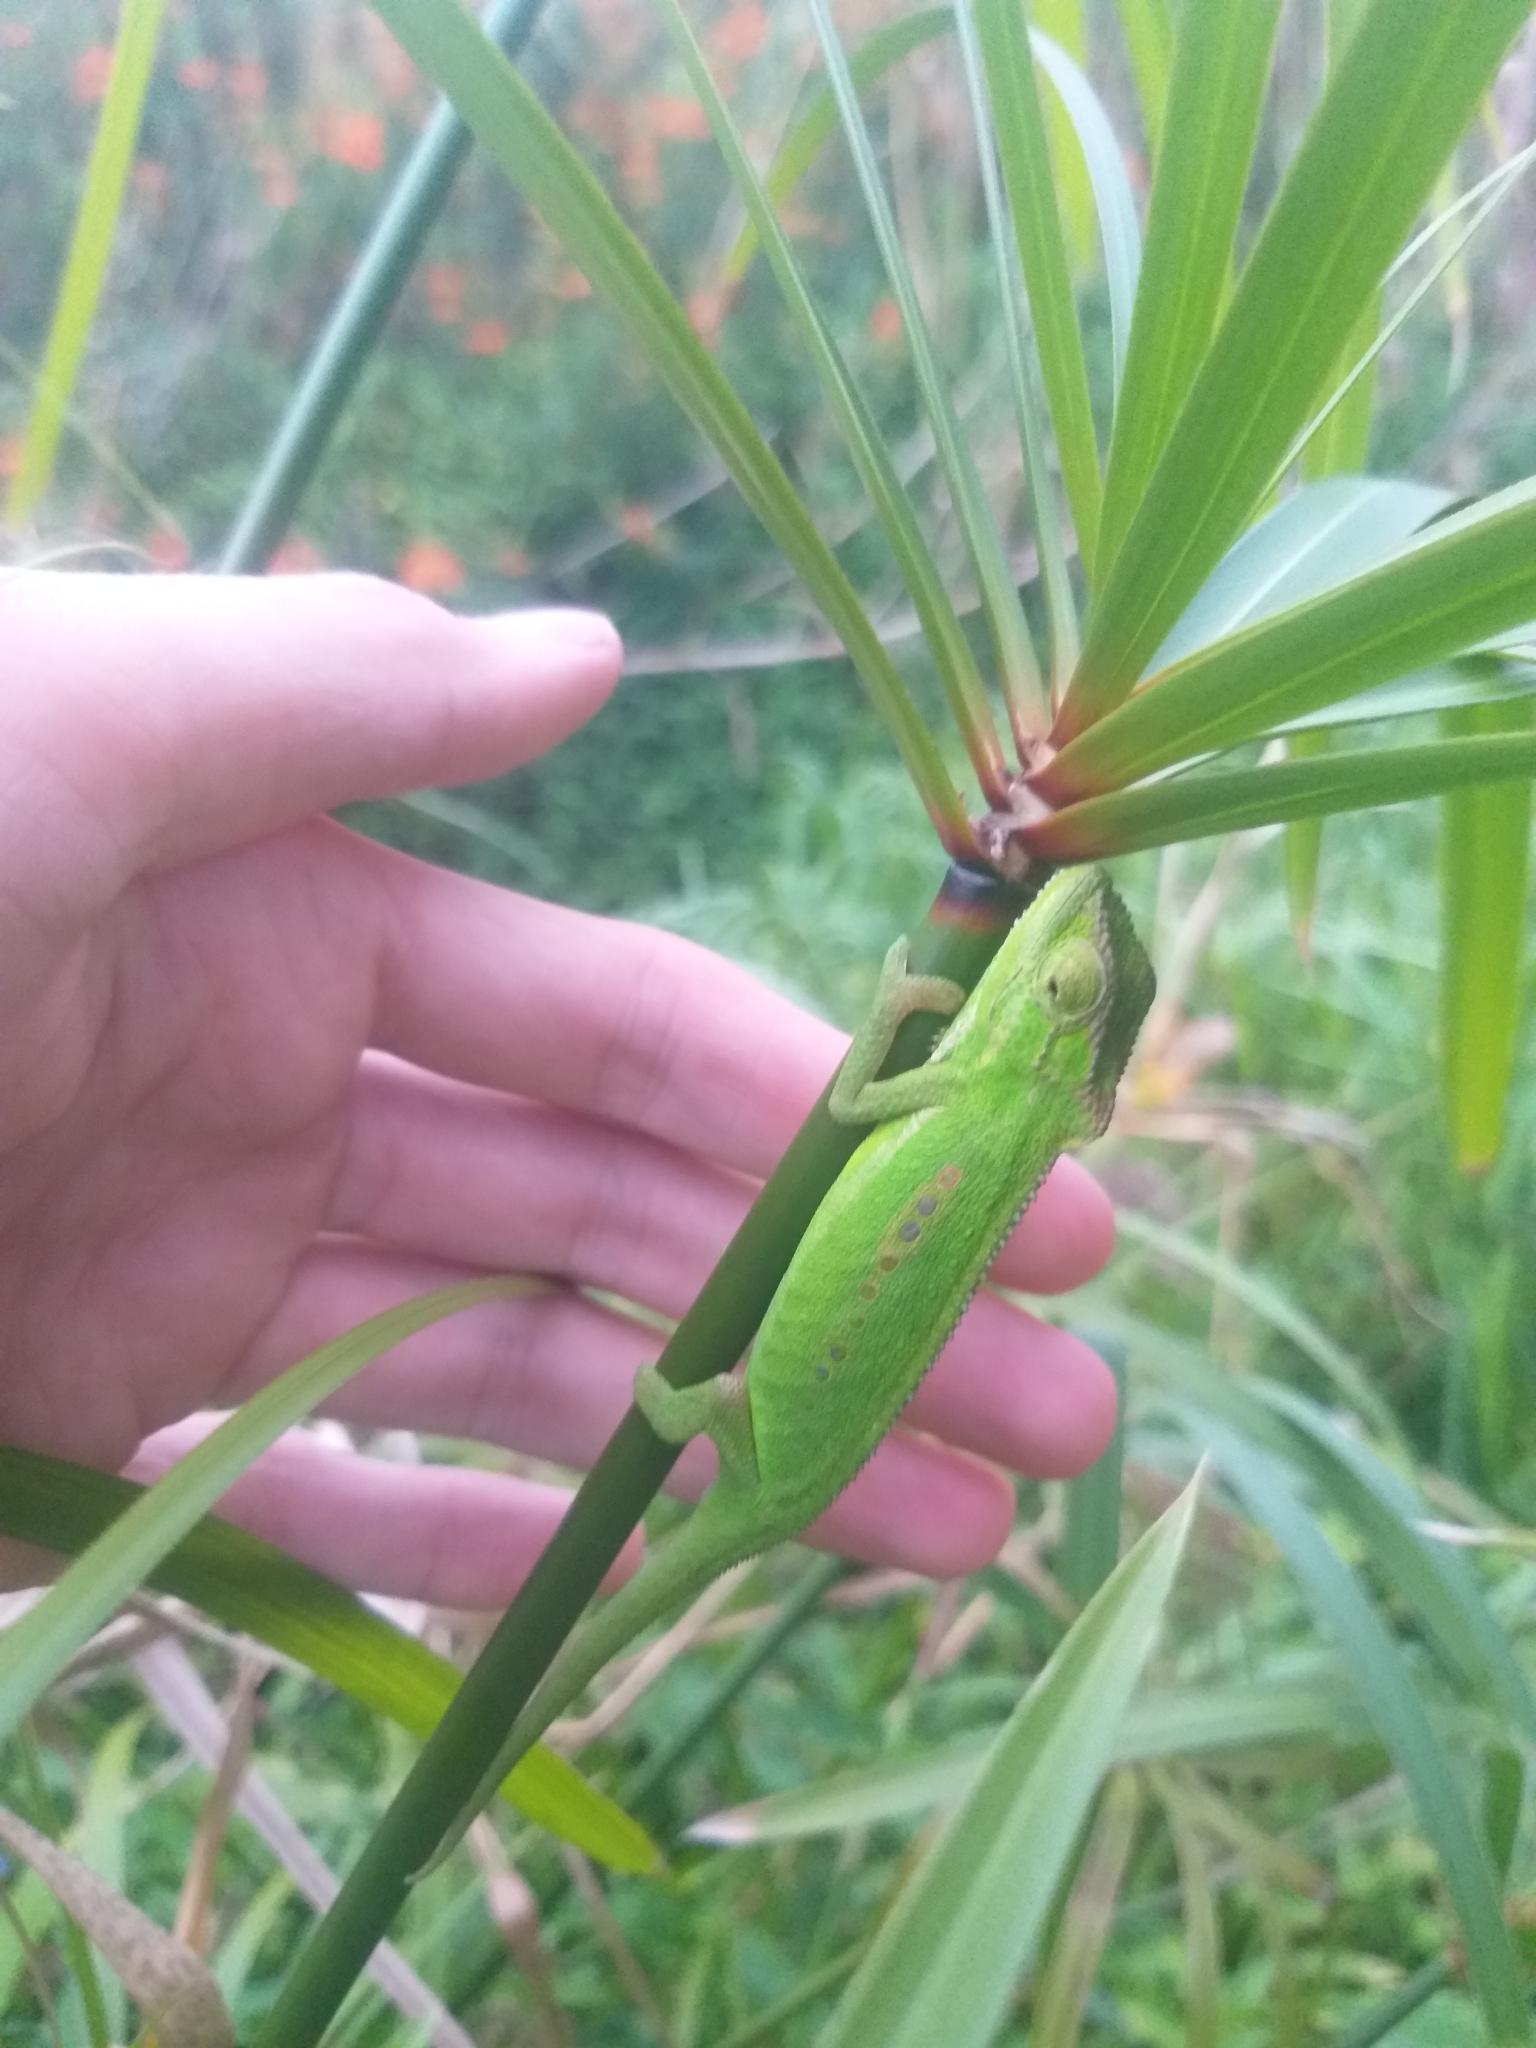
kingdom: Animalia
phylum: Chordata
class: Squamata
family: Chamaeleonidae
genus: Bradypodion
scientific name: Bradypodion pumilum
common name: Cape dwarf chameleon
